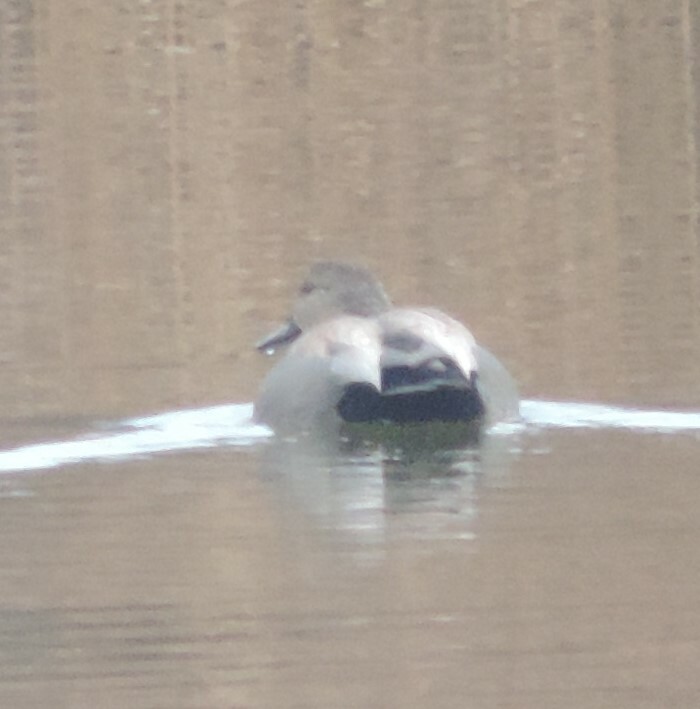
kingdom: Animalia
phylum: Chordata
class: Aves
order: Anseriformes
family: Anatidae
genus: Mareca
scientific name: Mareca strepera
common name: Gadwall
